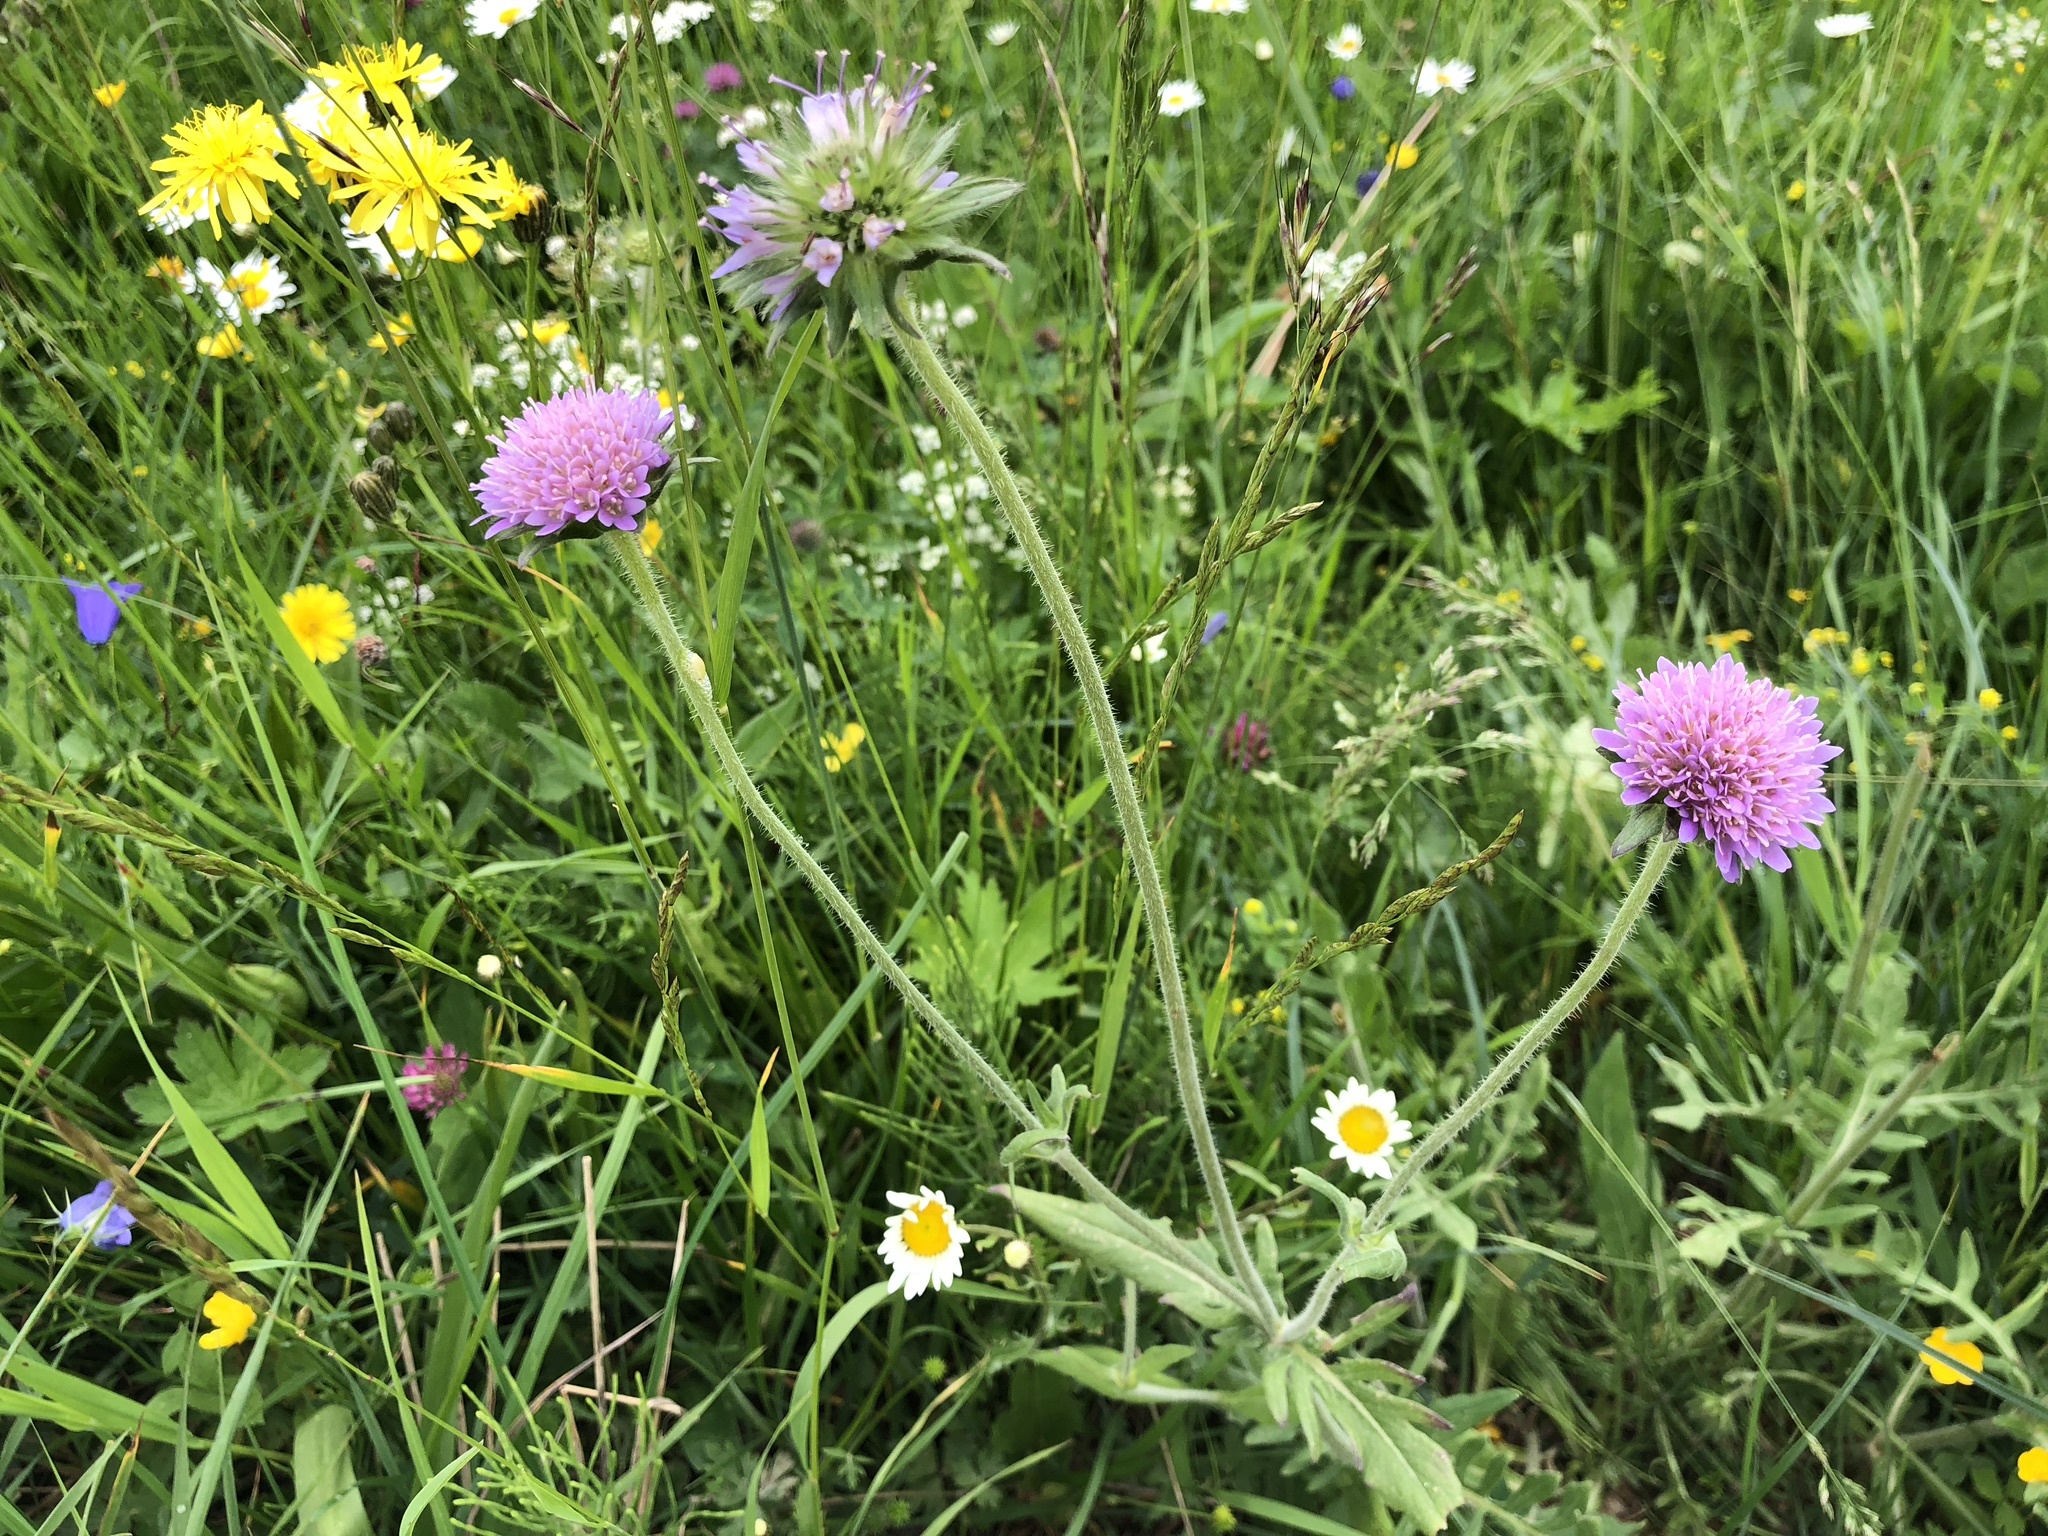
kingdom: Plantae
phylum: Tracheophyta
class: Magnoliopsida
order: Dipsacales
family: Caprifoliaceae
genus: Knautia
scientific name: Knautia arvensis
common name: Field scabiosa
